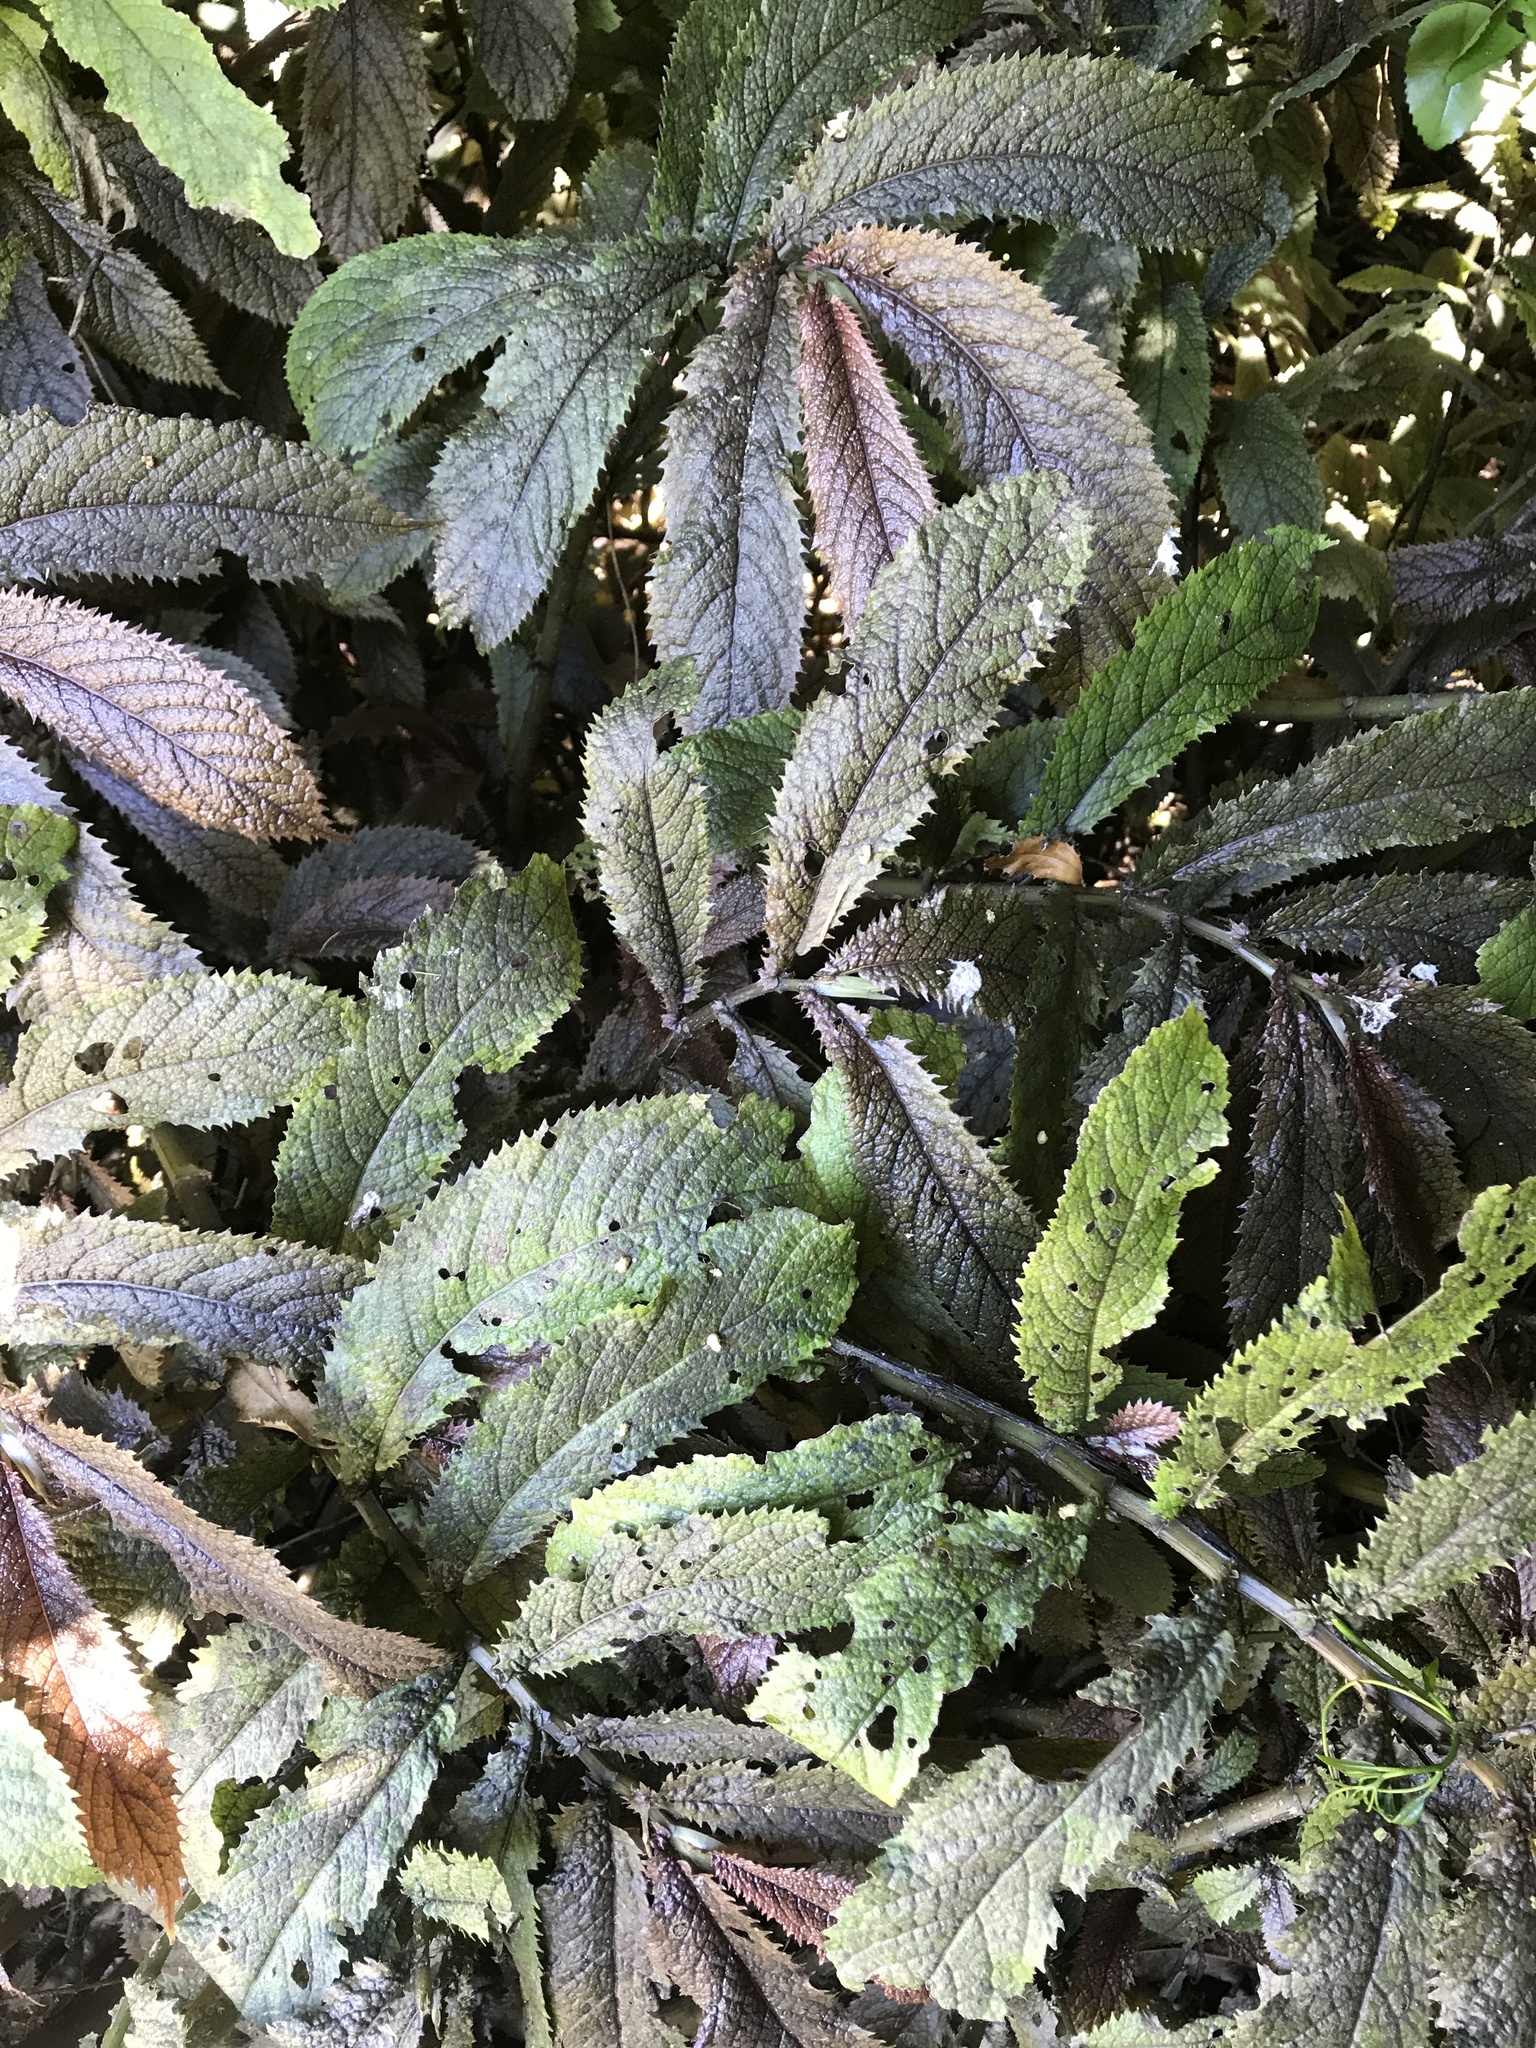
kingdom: Plantae
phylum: Tracheophyta
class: Magnoliopsida
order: Rosales
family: Urticaceae
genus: Elatostema
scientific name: Elatostema rugosum
